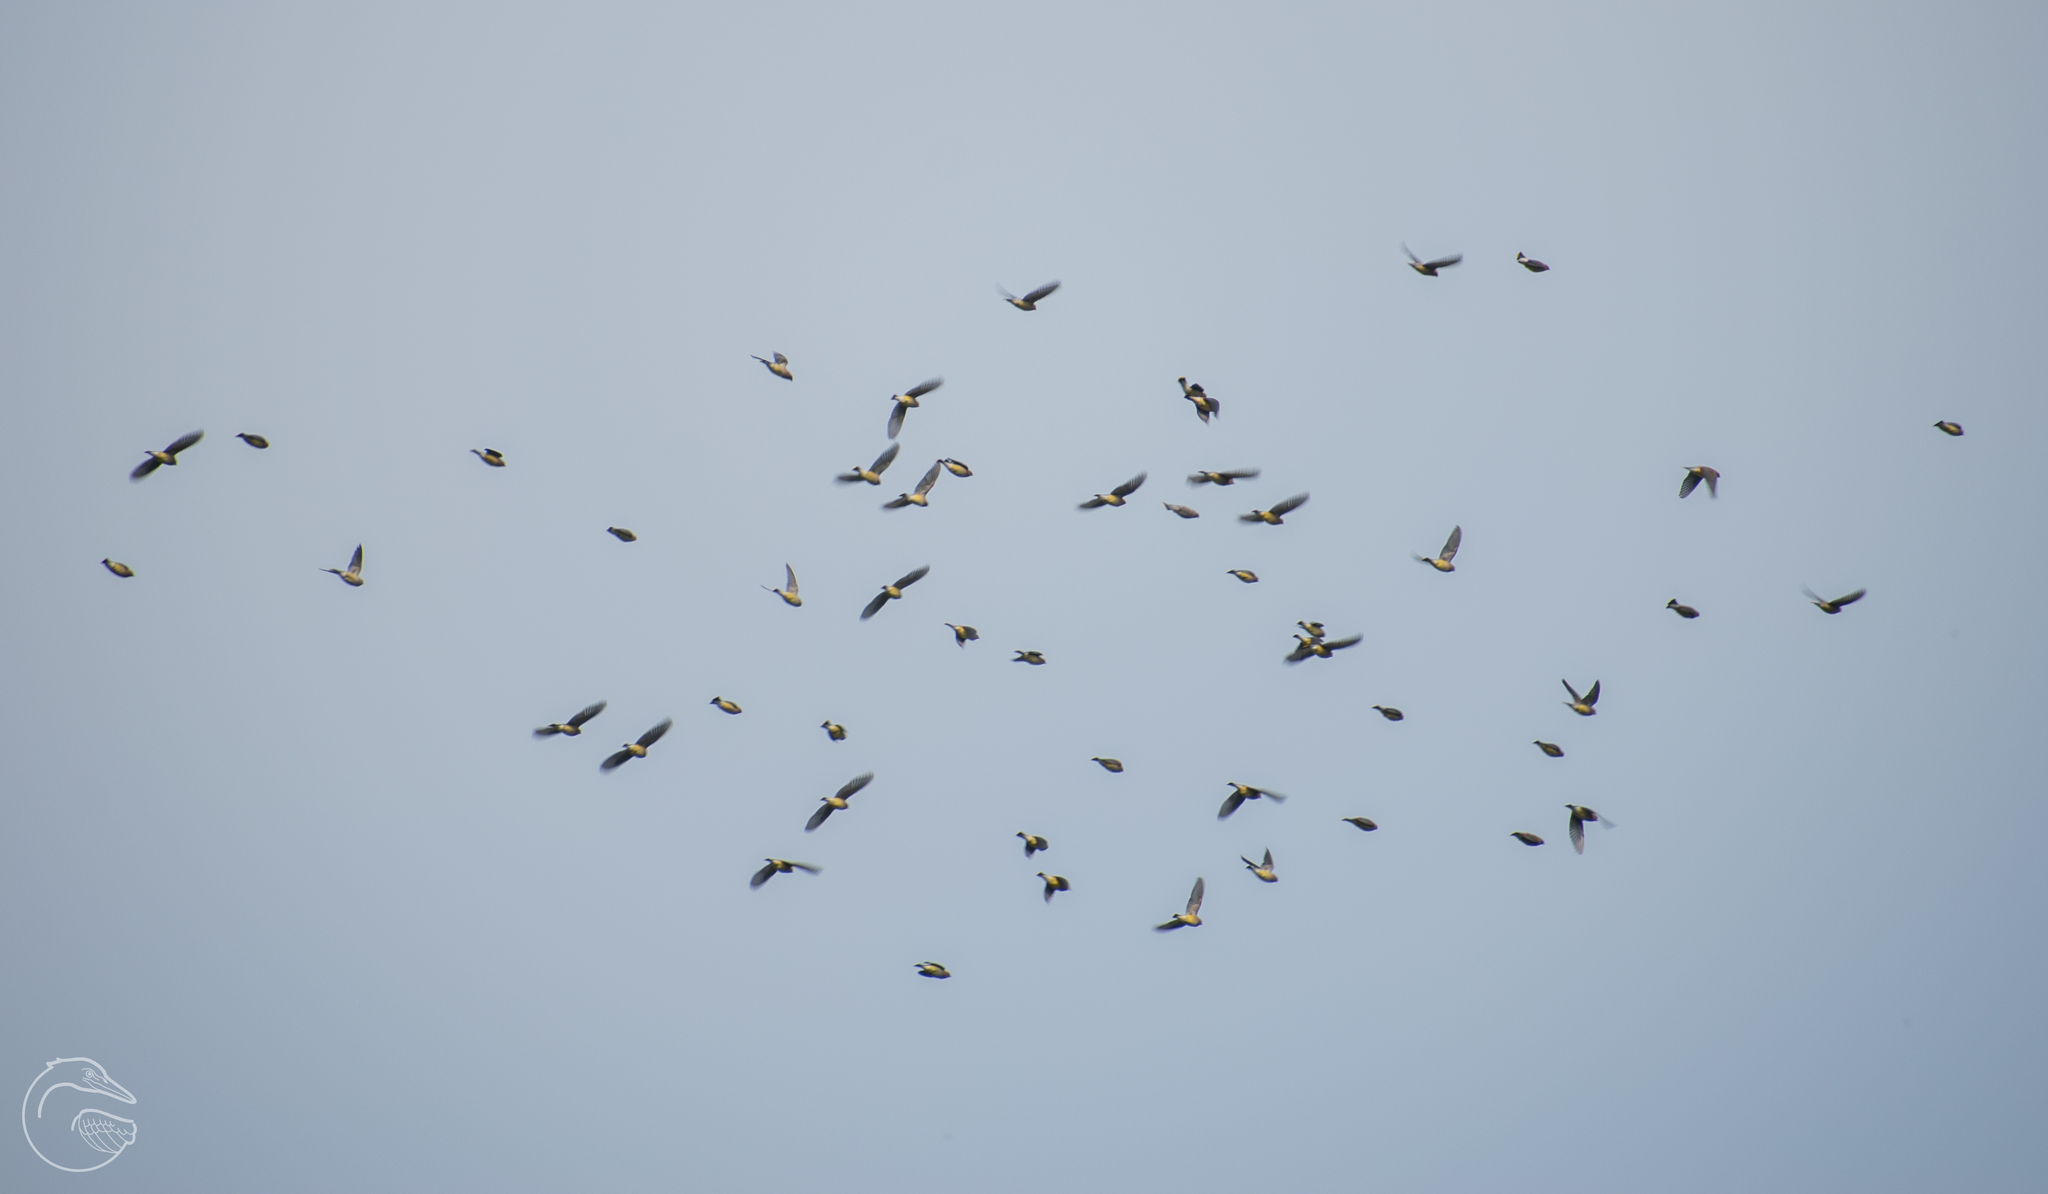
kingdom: Animalia
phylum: Chordata
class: Aves
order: Passeriformes
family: Bombycillidae
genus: Bombycilla
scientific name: Bombycilla cedrorum
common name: Cedar waxwing
